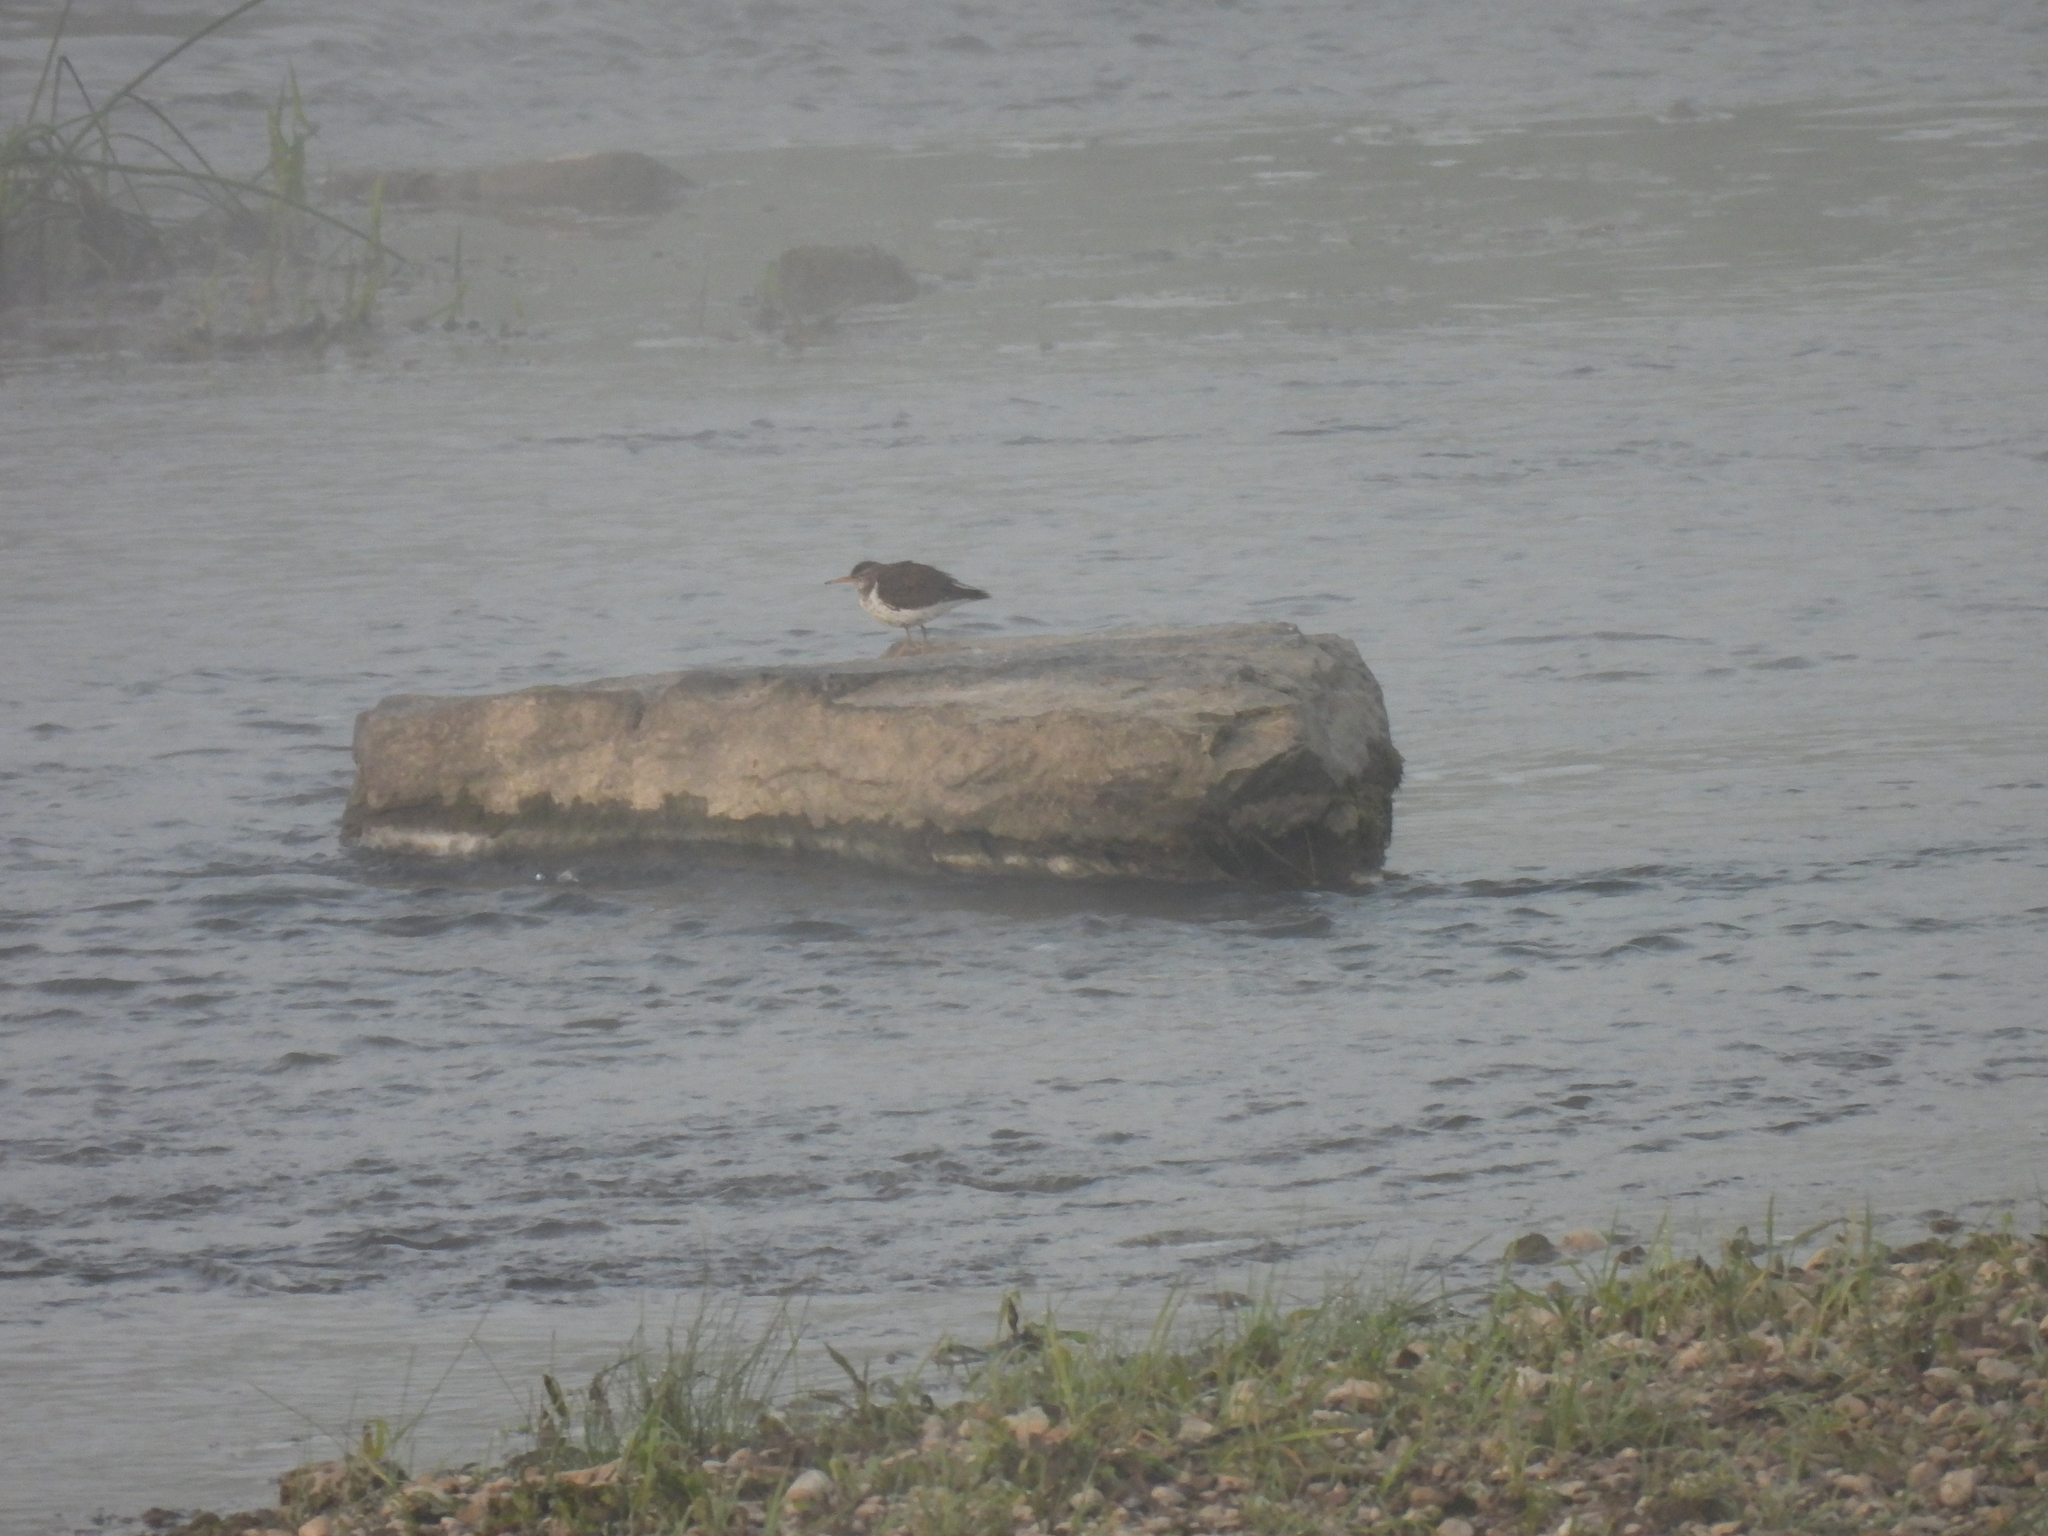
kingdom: Animalia
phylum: Chordata
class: Aves
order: Charadriiformes
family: Scolopacidae
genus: Actitis
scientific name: Actitis macularius
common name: Spotted sandpiper
